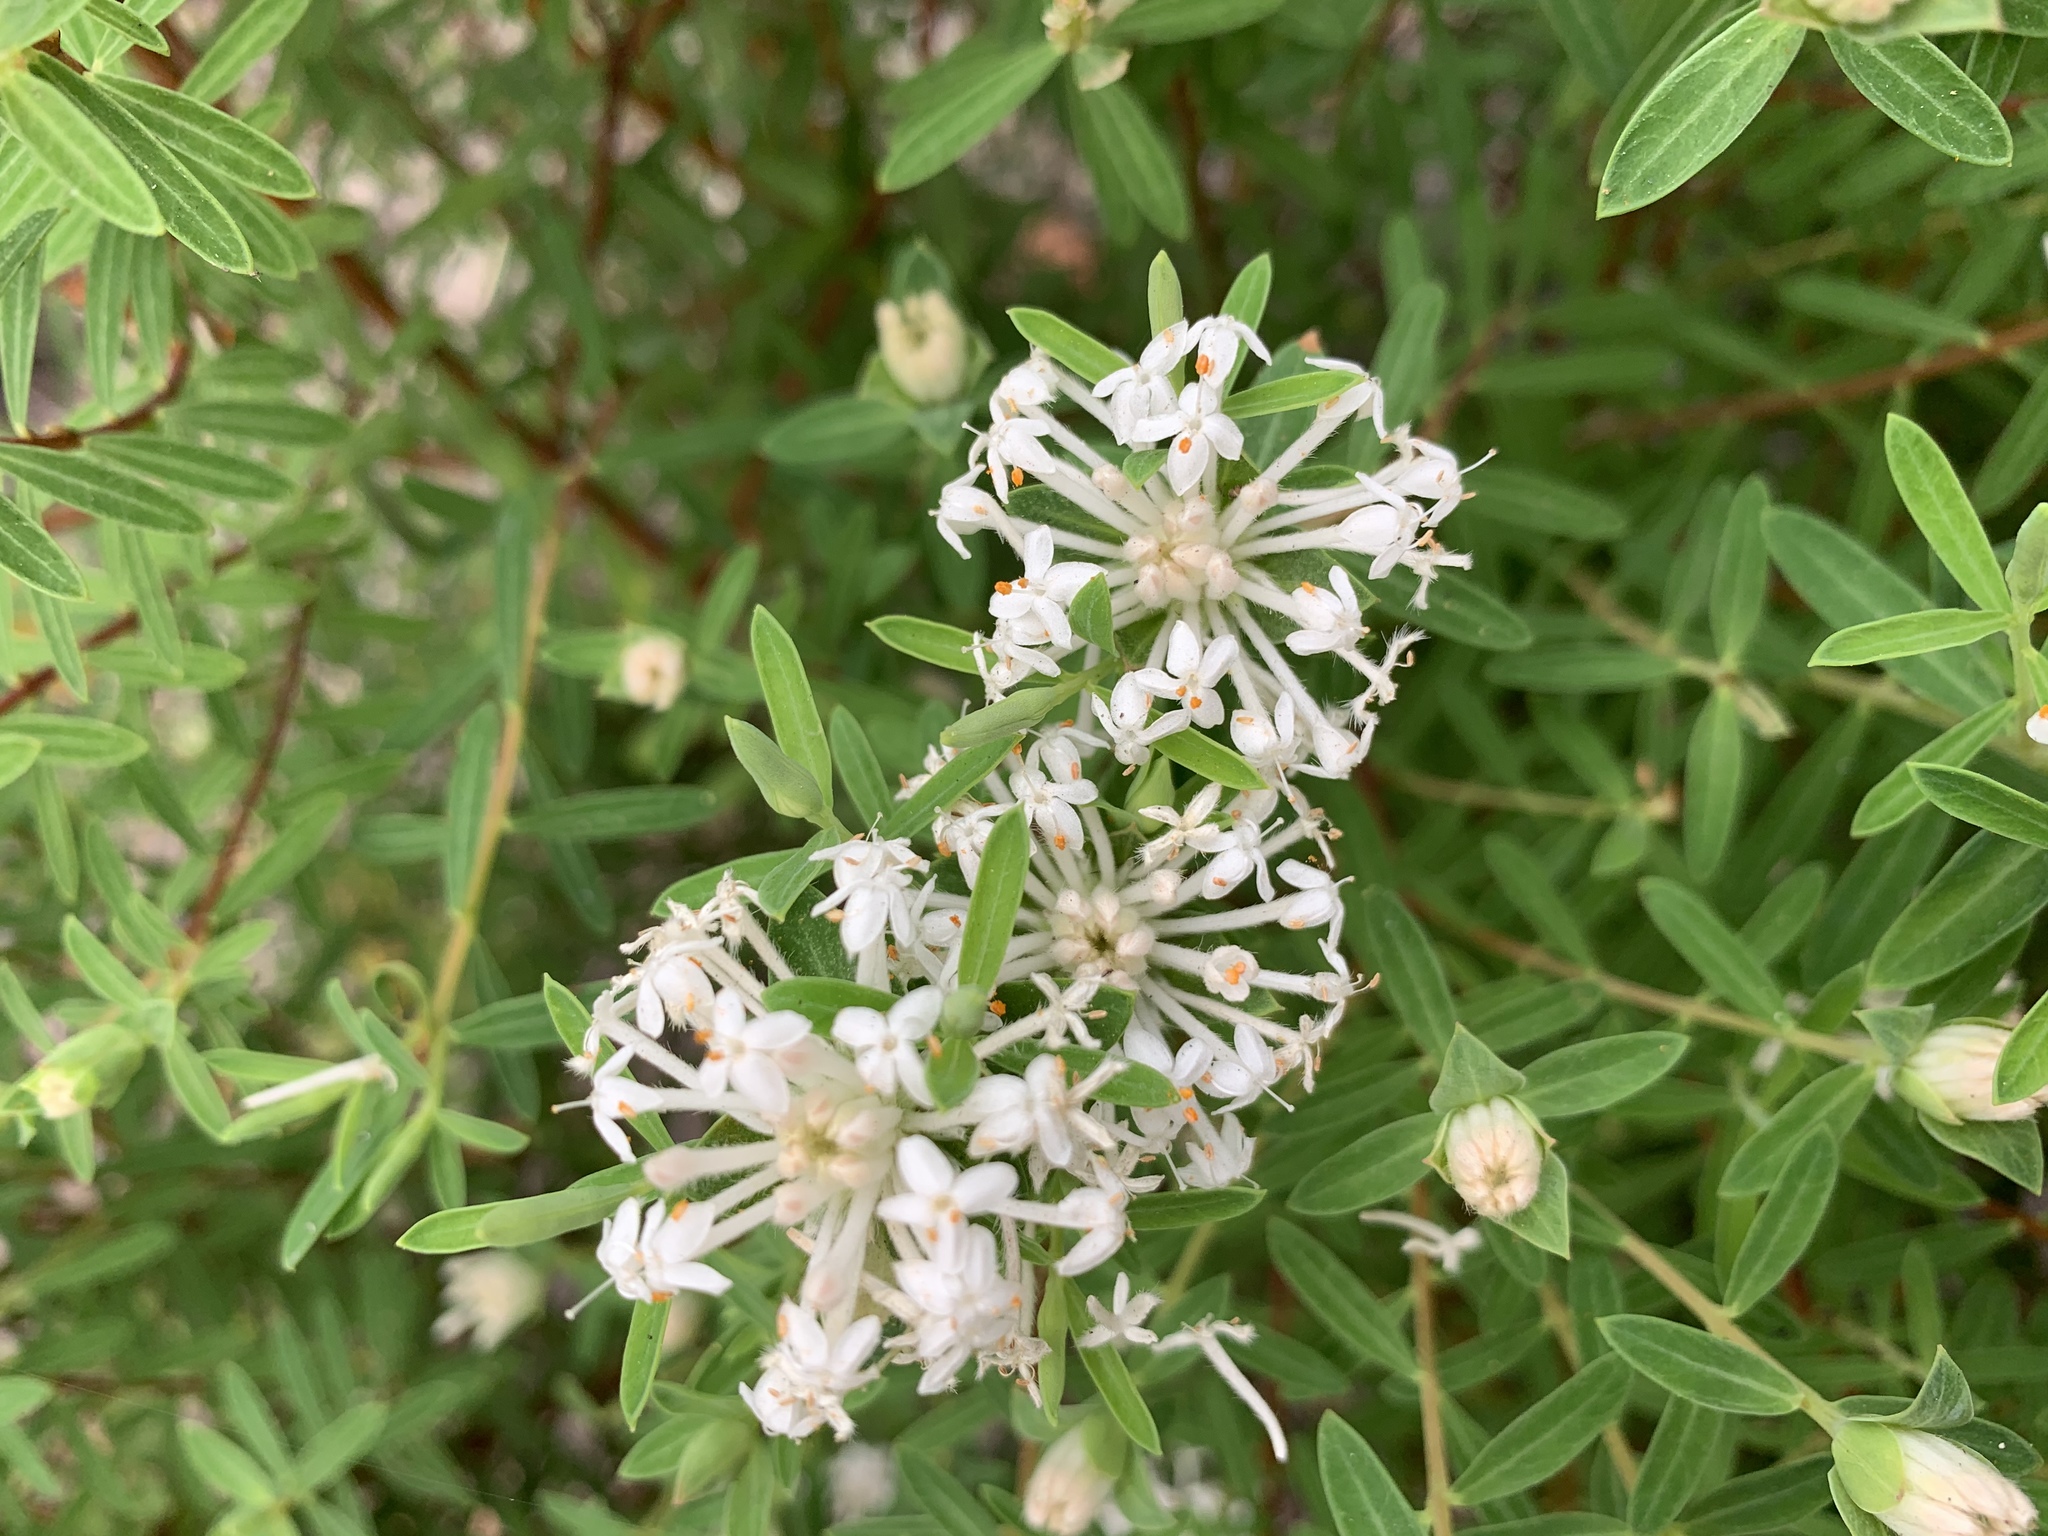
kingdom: Plantae
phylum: Tracheophyta
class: Magnoliopsida
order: Malvales
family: Thymelaeaceae
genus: Pimelea
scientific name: Pimelea linifolia
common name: Queen-of-the-bush
